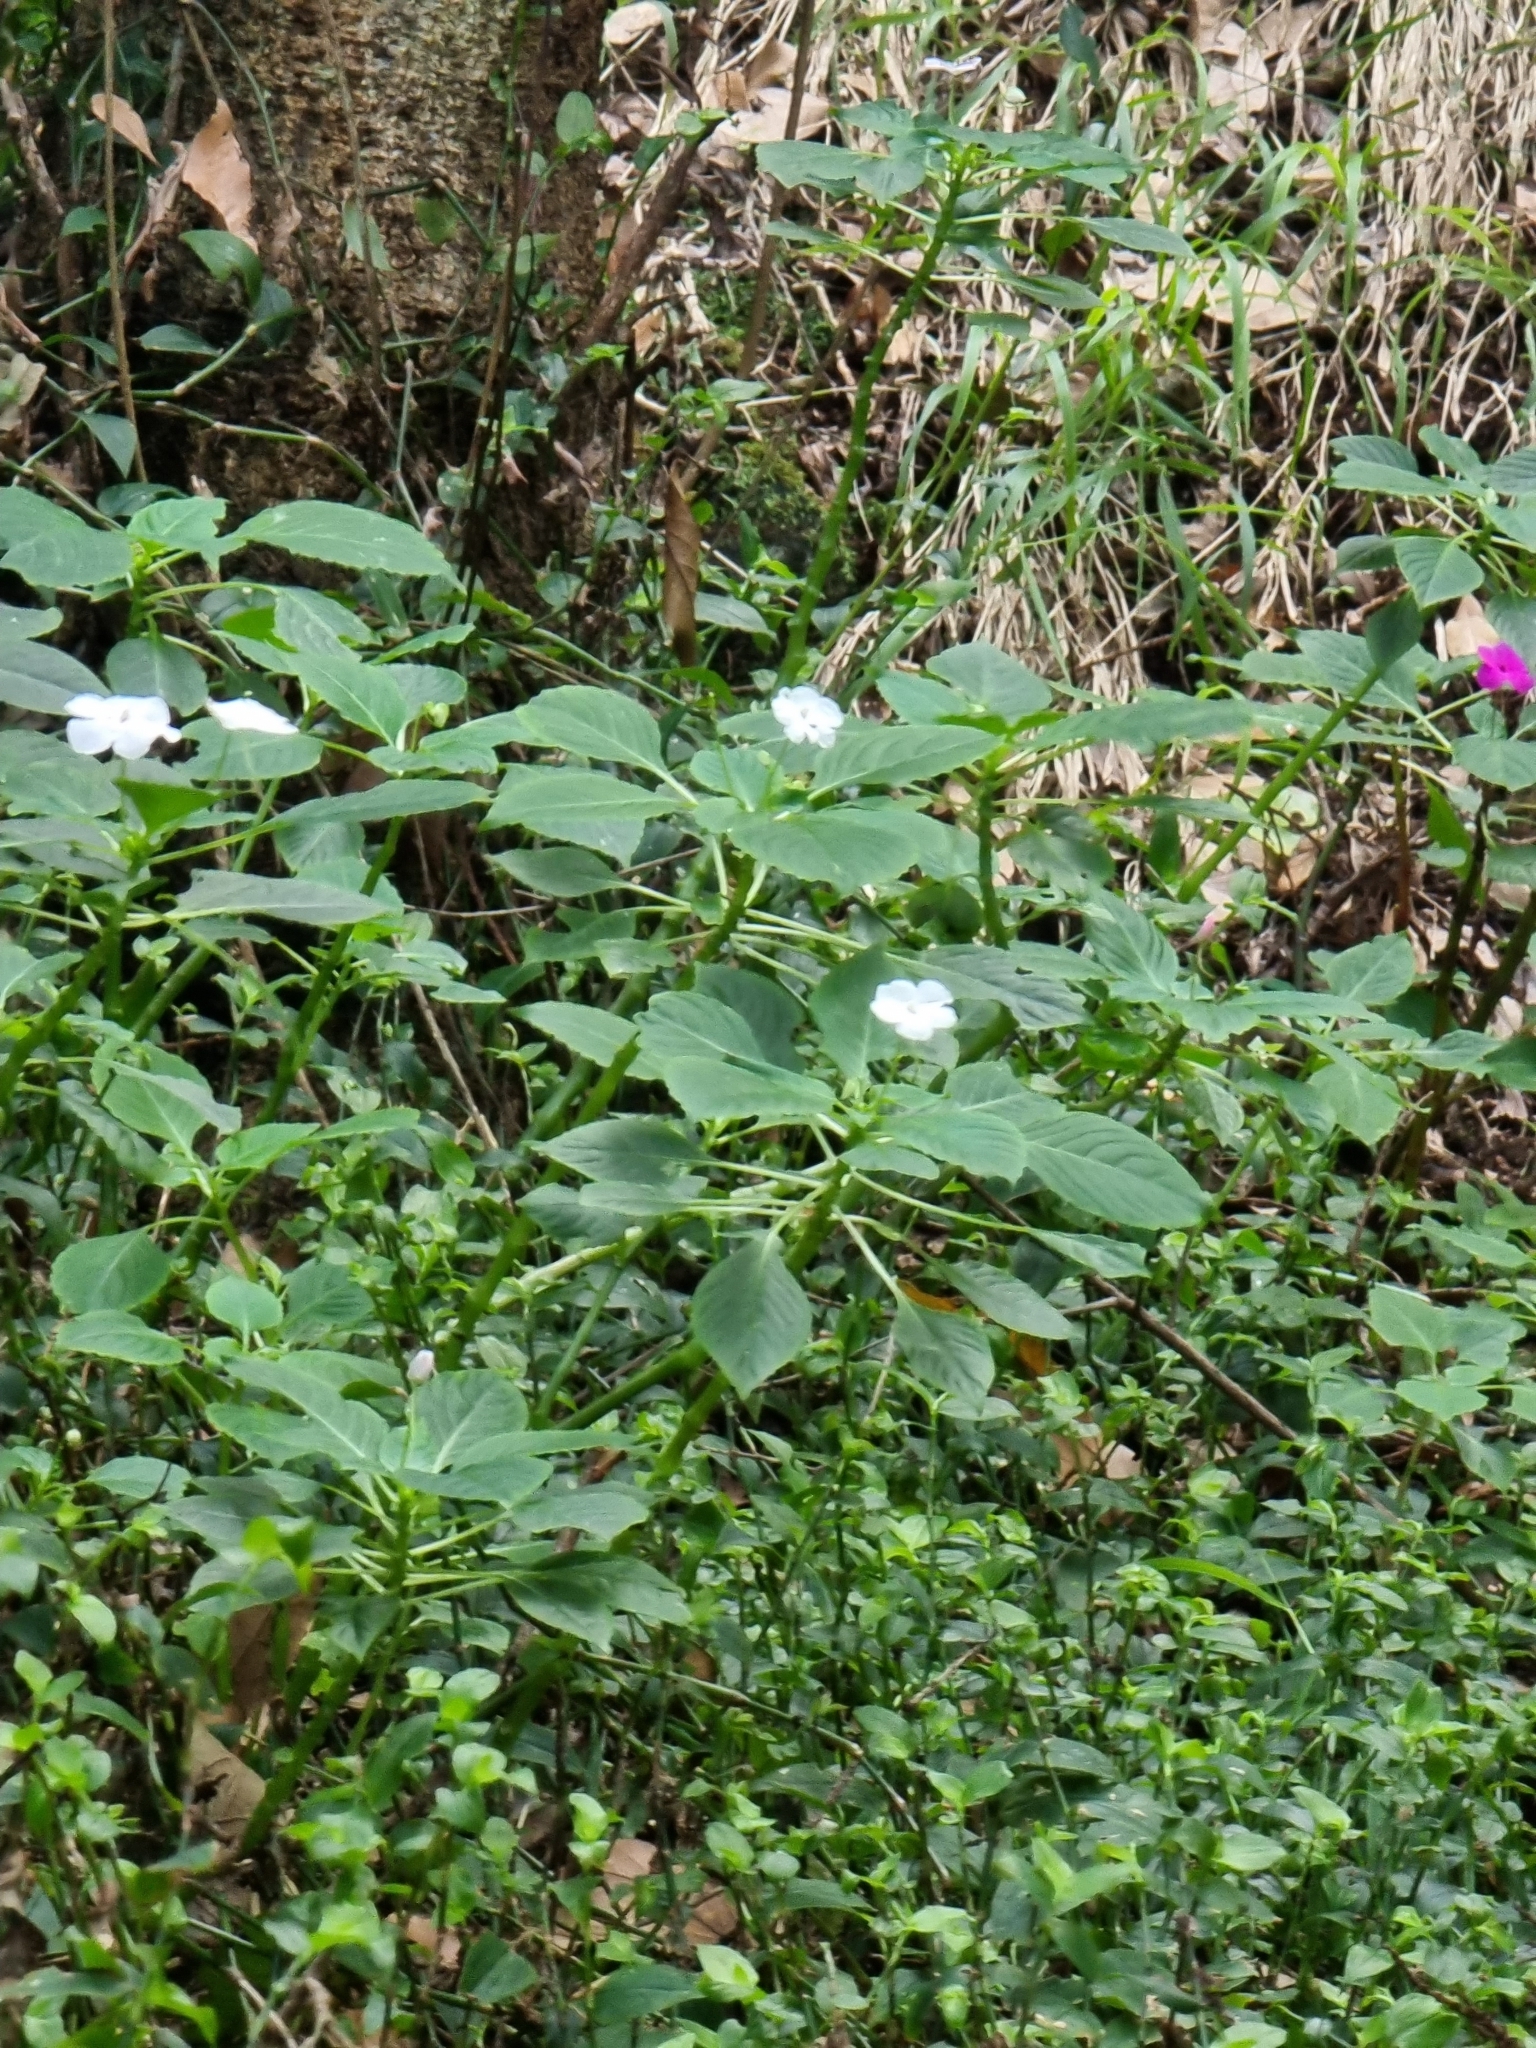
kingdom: Plantae
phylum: Tracheophyta
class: Magnoliopsida
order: Ericales
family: Balsaminaceae
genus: Impatiens
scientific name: Impatiens walleriana
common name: Buzzy lizzy
